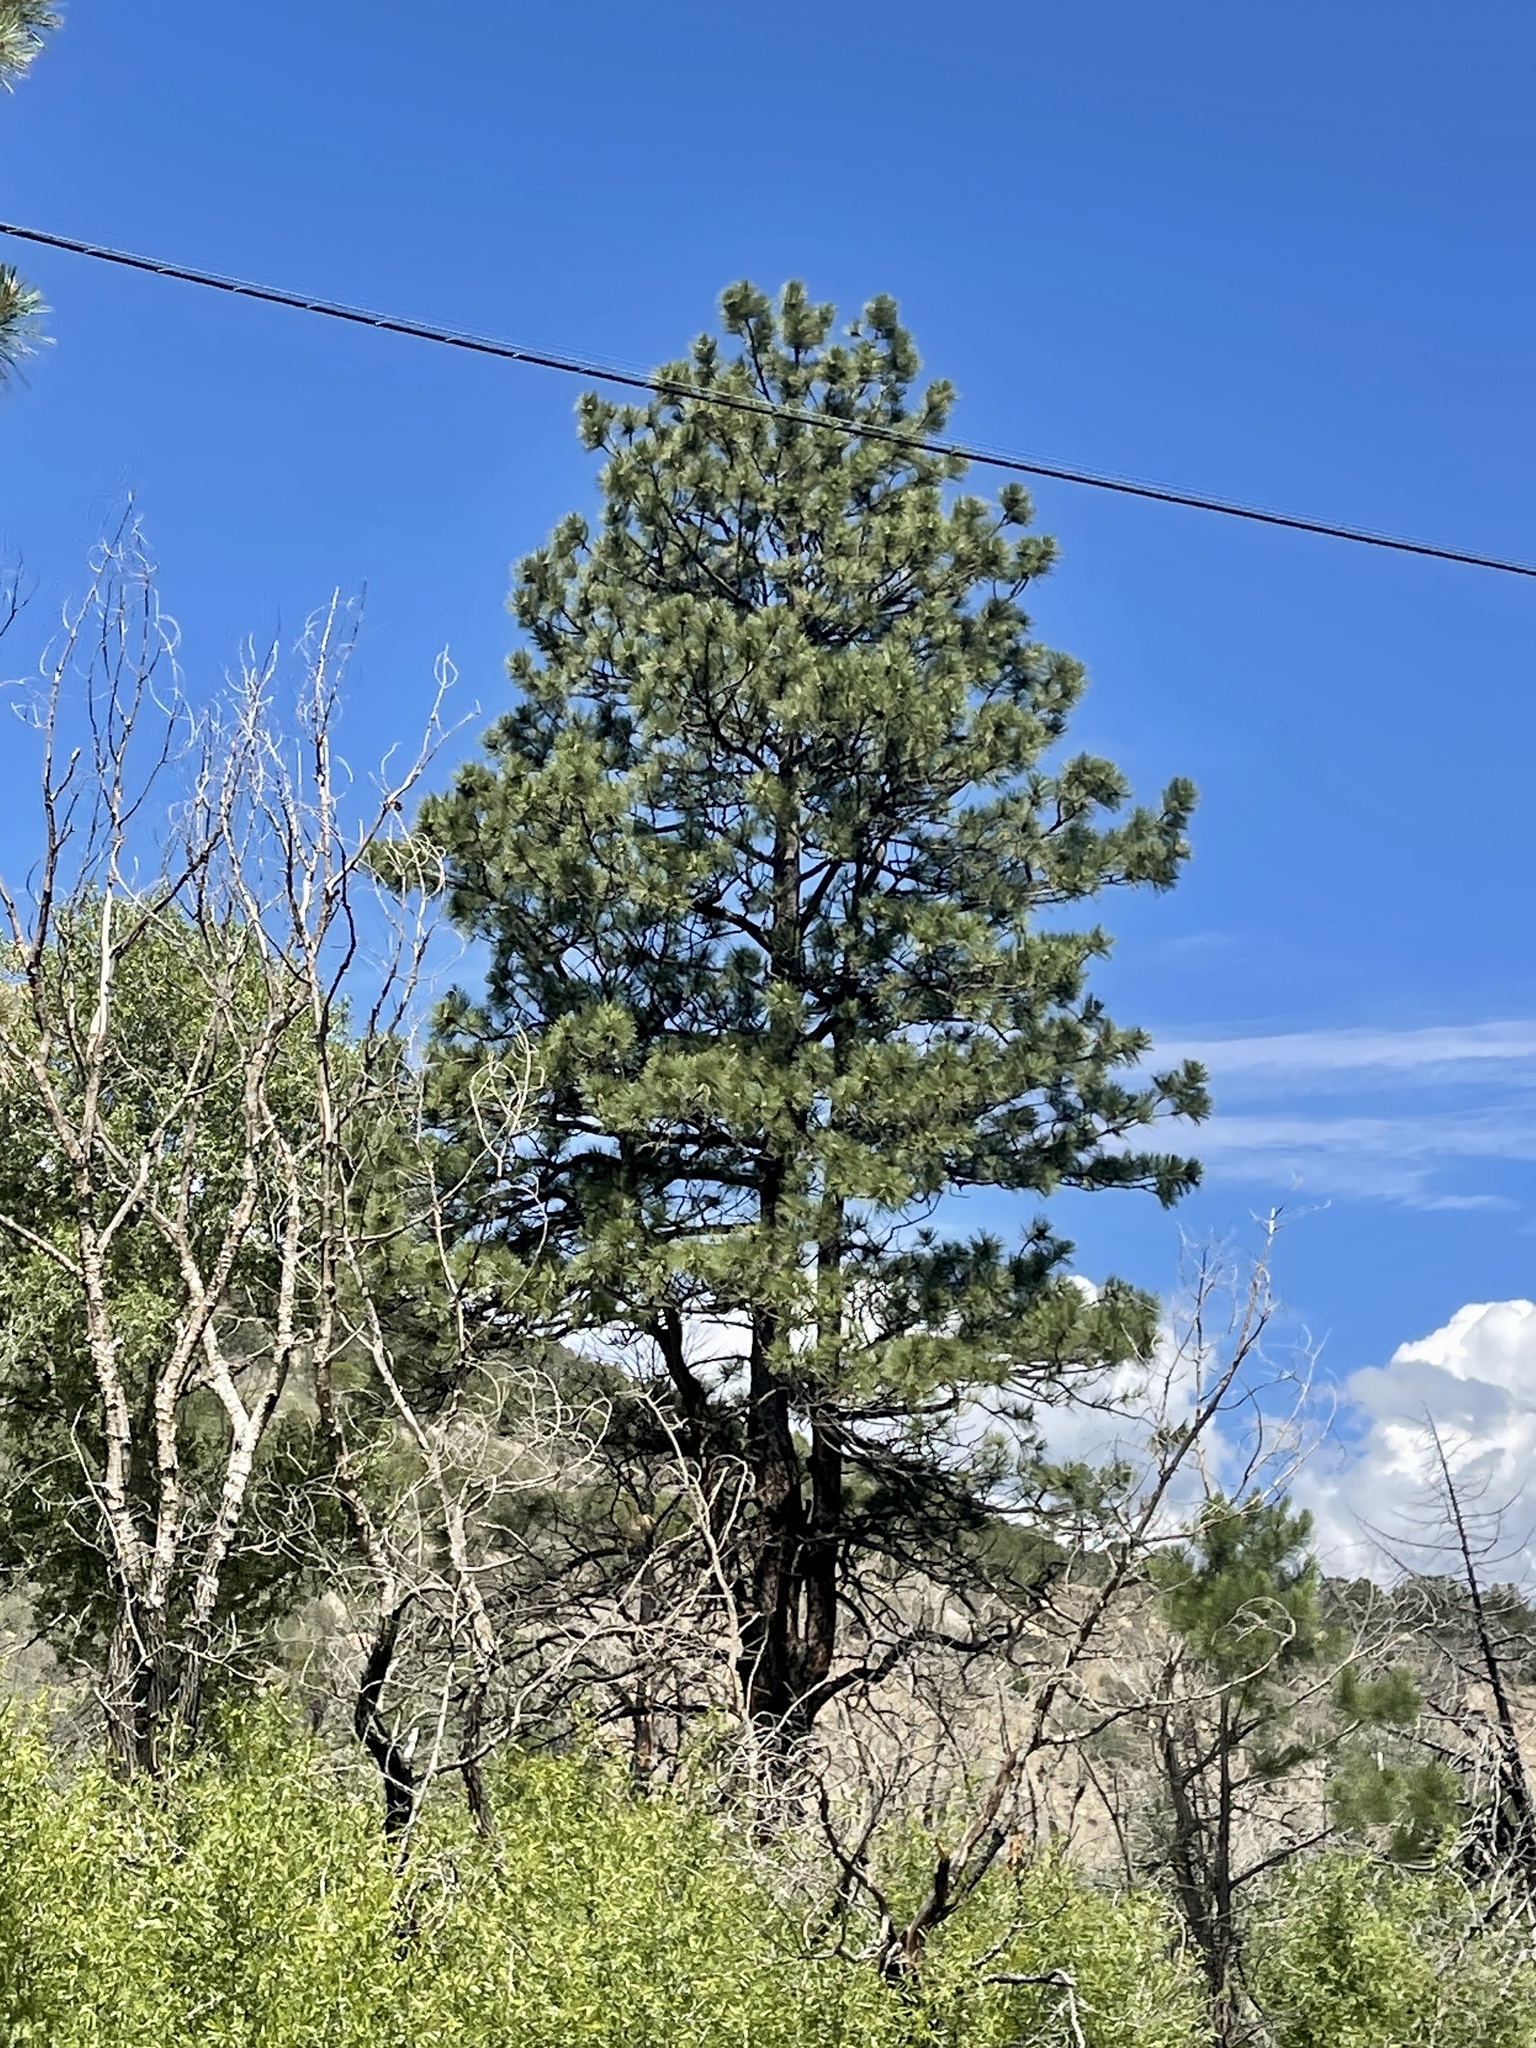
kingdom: Plantae
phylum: Tracheophyta
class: Pinopsida
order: Pinales
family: Pinaceae
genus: Pinus
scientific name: Pinus ponderosa
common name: Western yellow-pine
